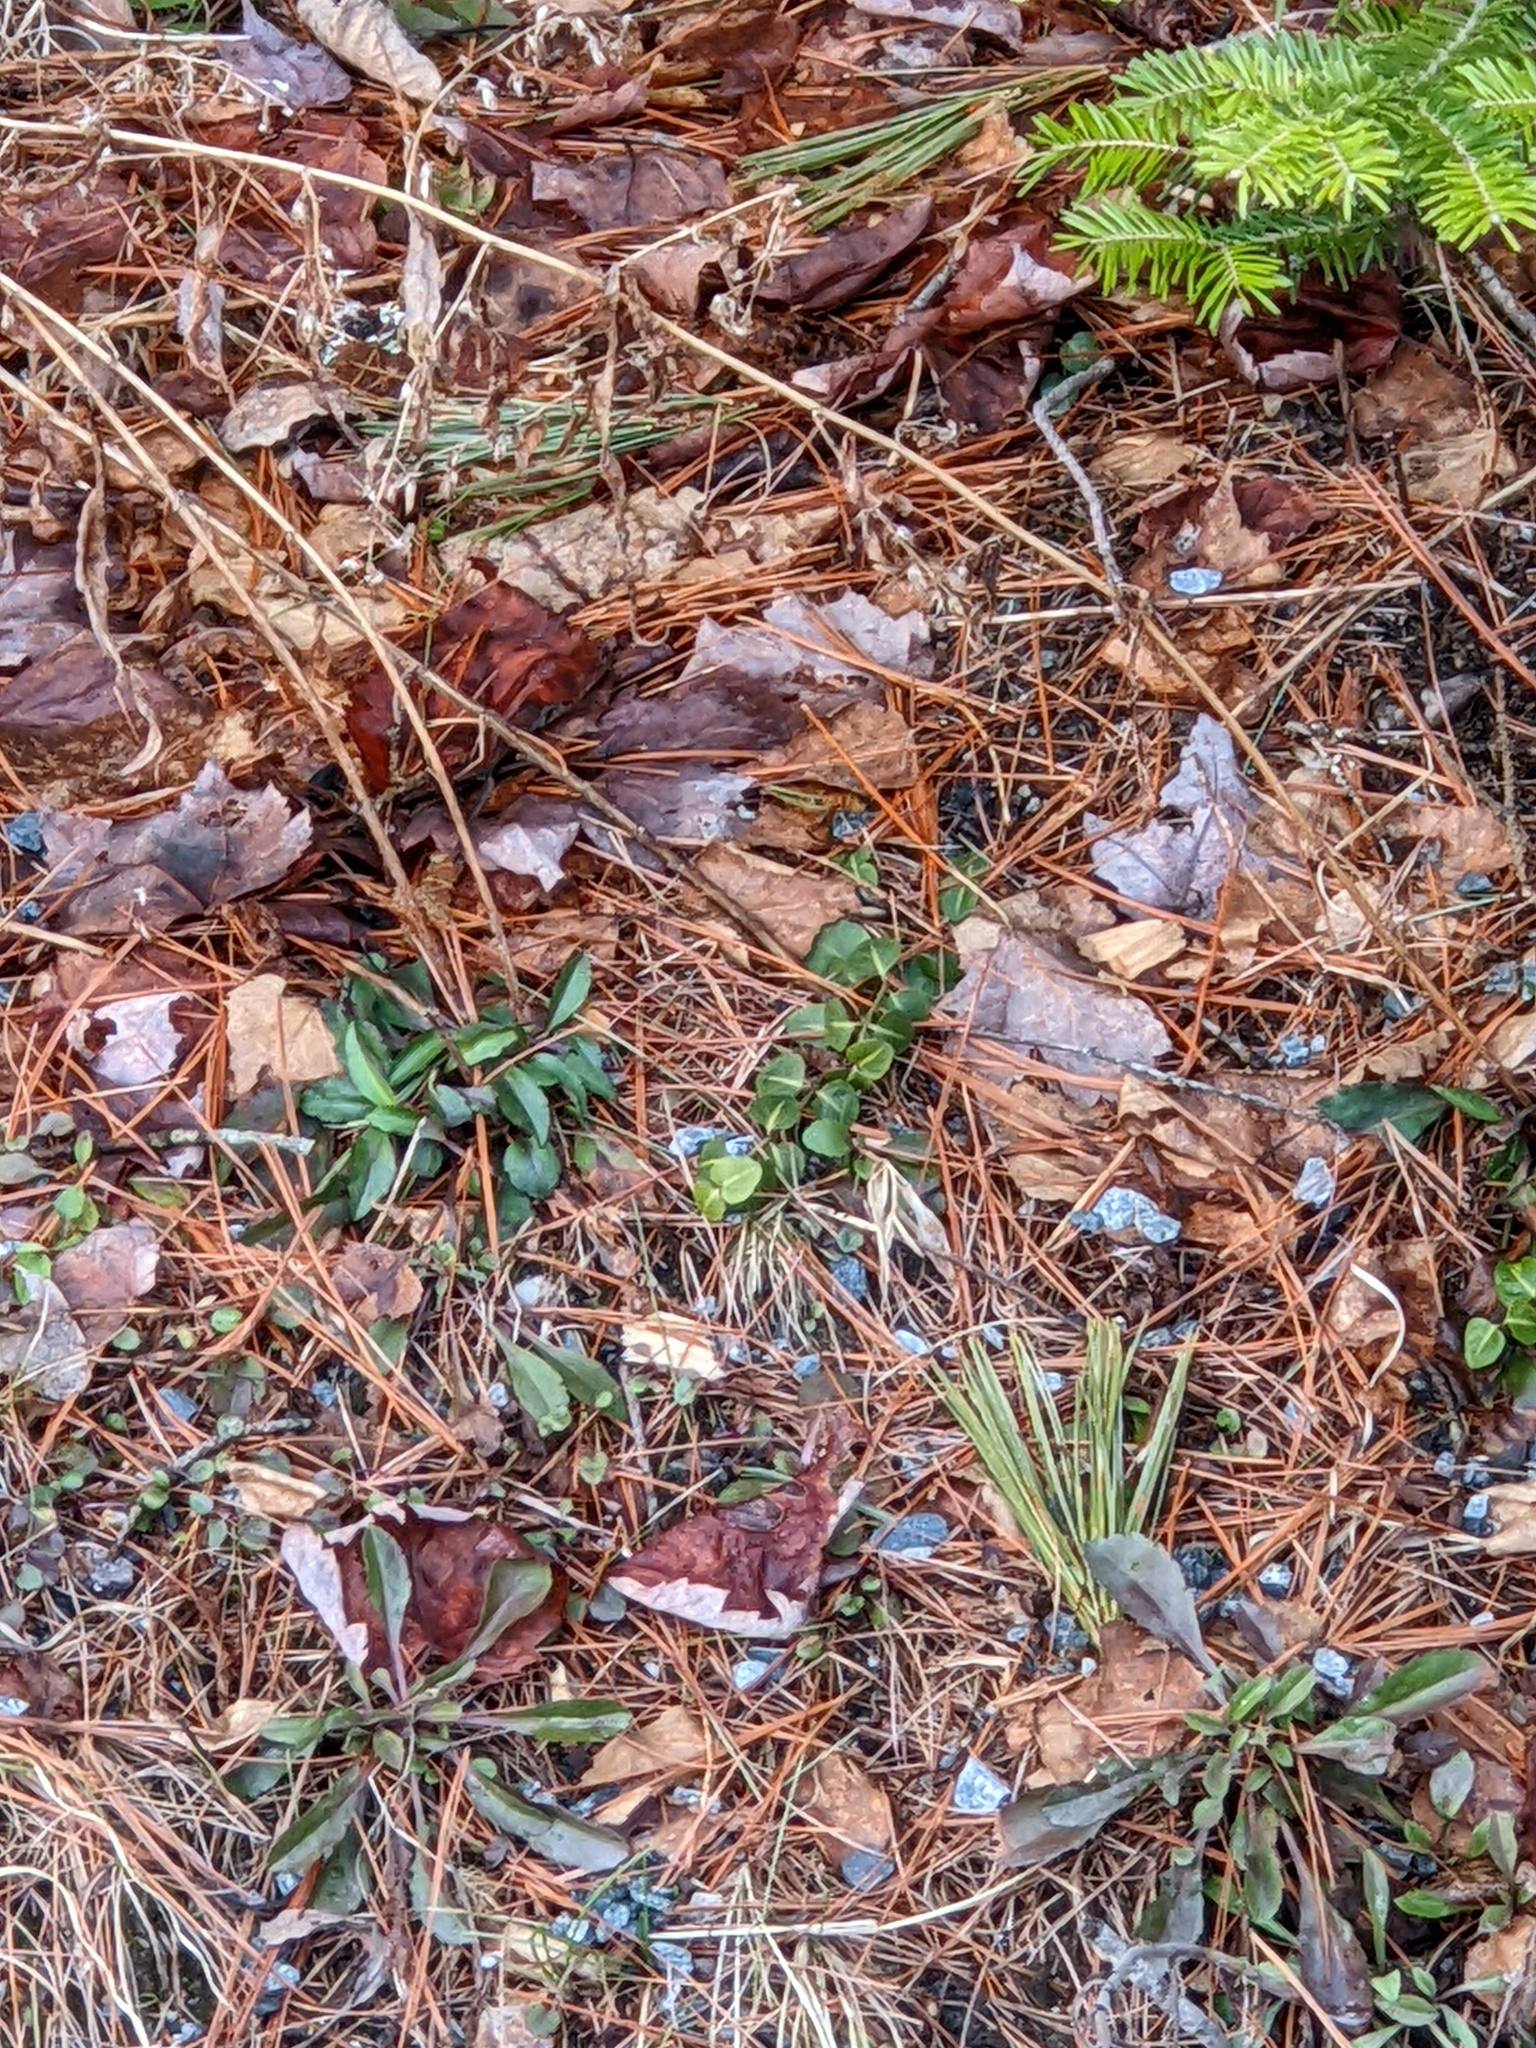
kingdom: Plantae
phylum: Tracheophyta
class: Magnoliopsida
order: Gentianales
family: Rubiaceae
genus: Mitchella
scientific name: Mitchella repens
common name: Partridge-berry
